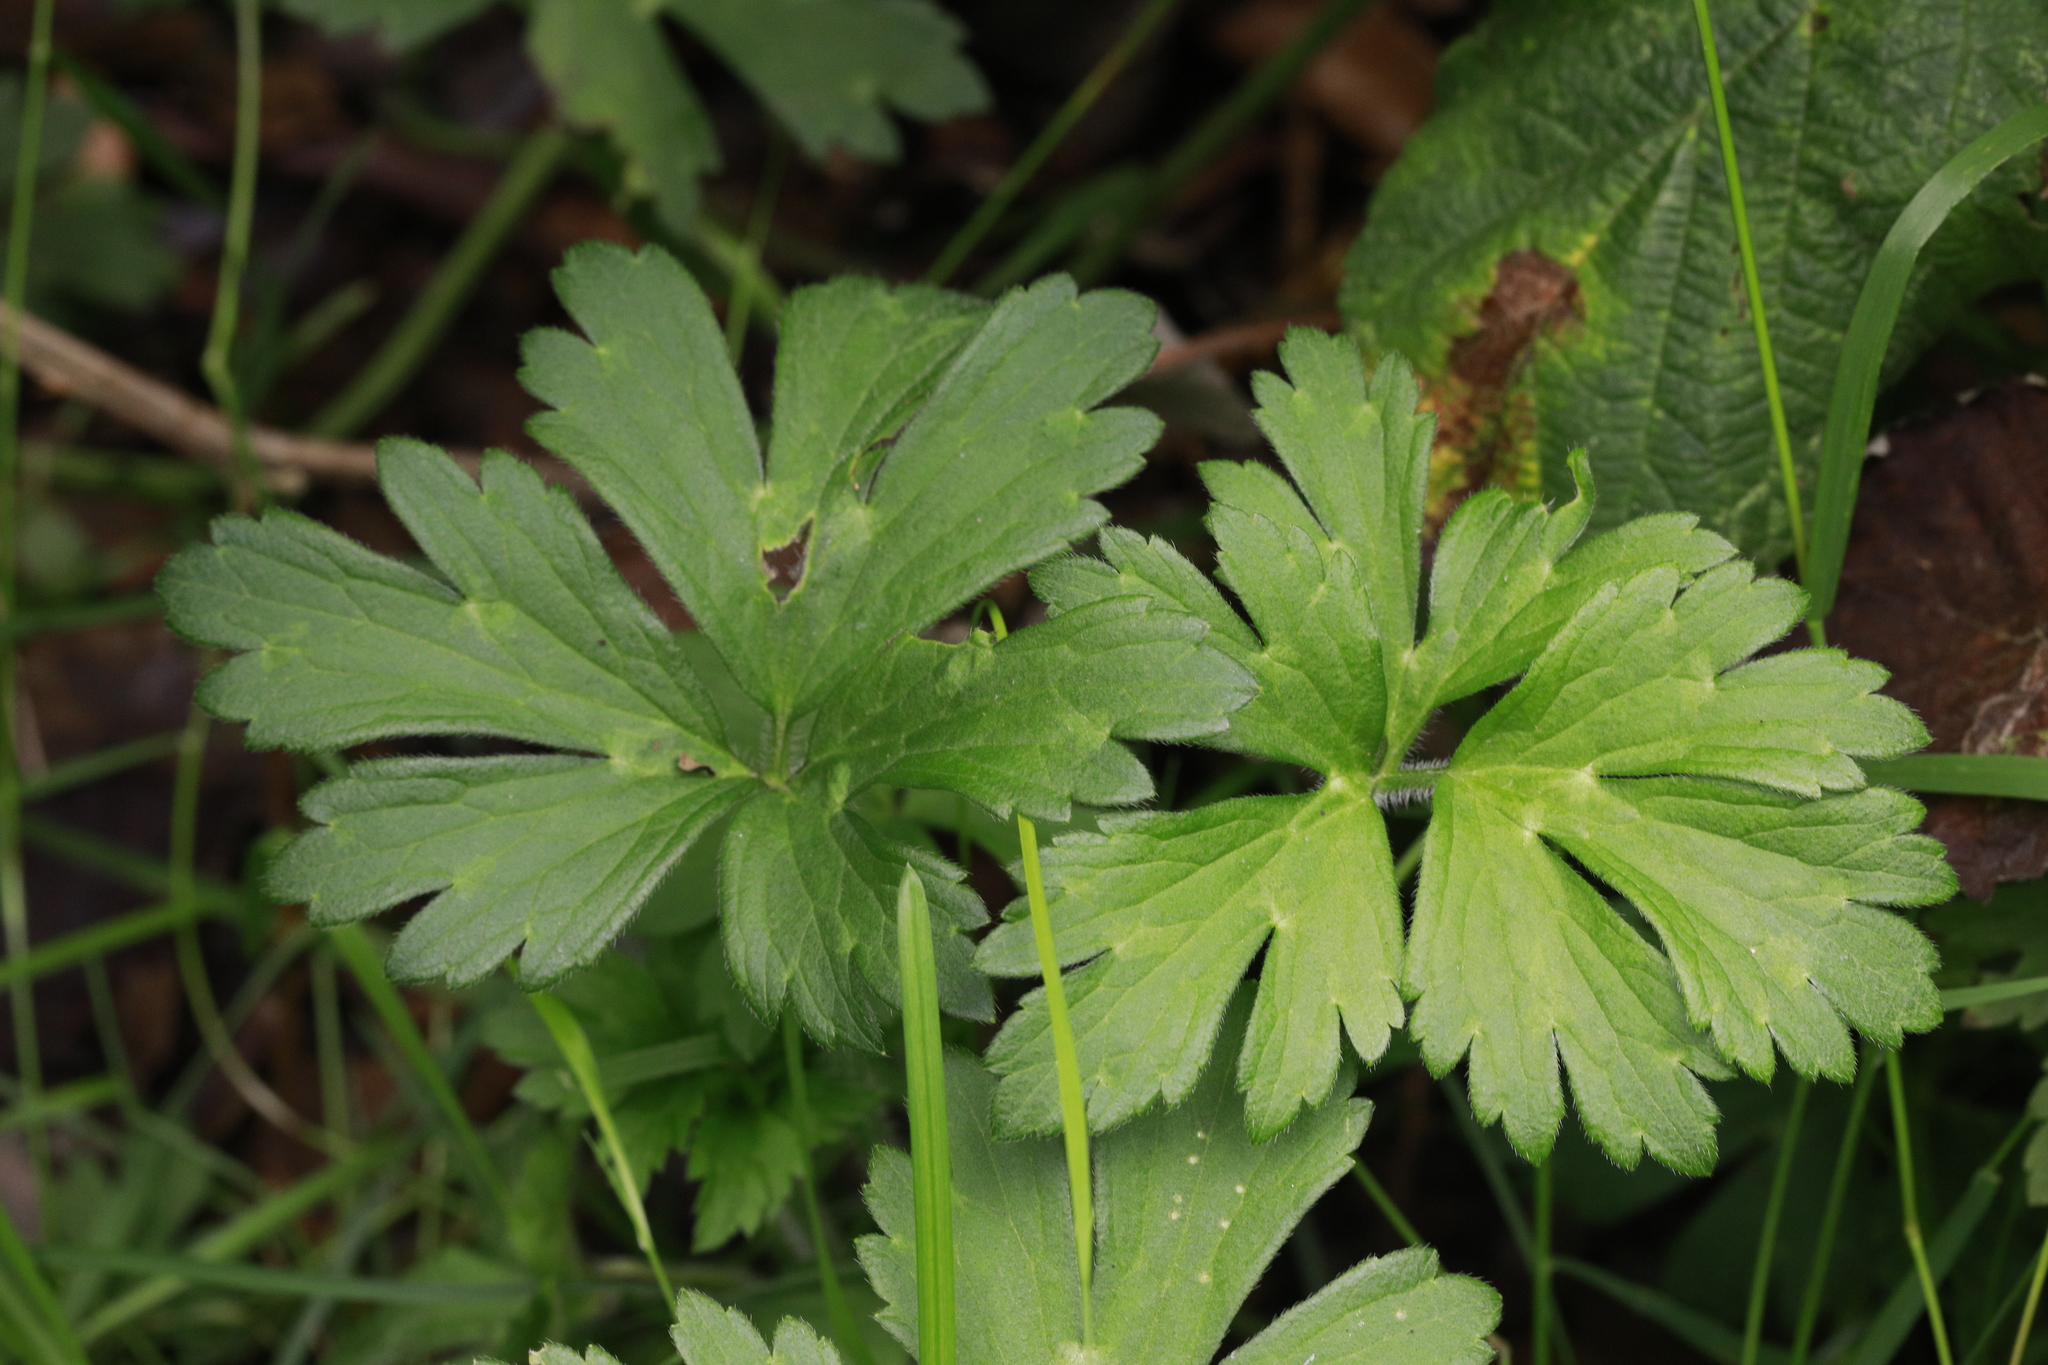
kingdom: Plantae
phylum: Tracheophyta
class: Magnoliopsida
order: Ranunculales
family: Ranunculaceae
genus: Ranunculus
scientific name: Ranunculus repens
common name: Creeping buttercup
